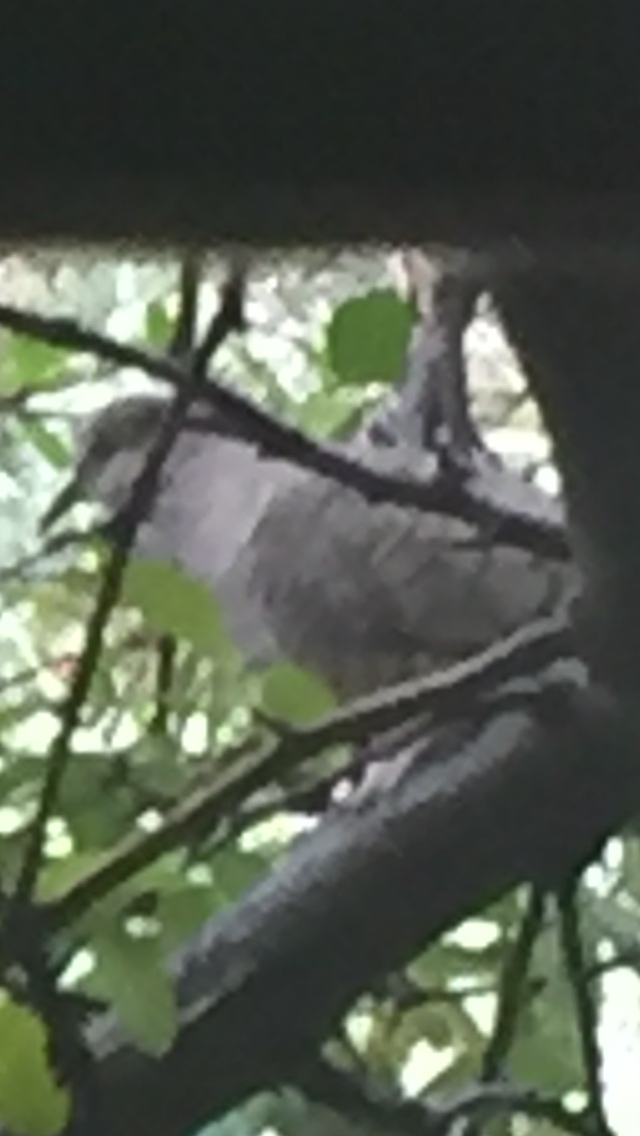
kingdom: Animalia
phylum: Chordata
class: Aves
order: Columbiformes
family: Columbidae
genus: Columbina
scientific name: Columbina inca
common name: Inca dove
